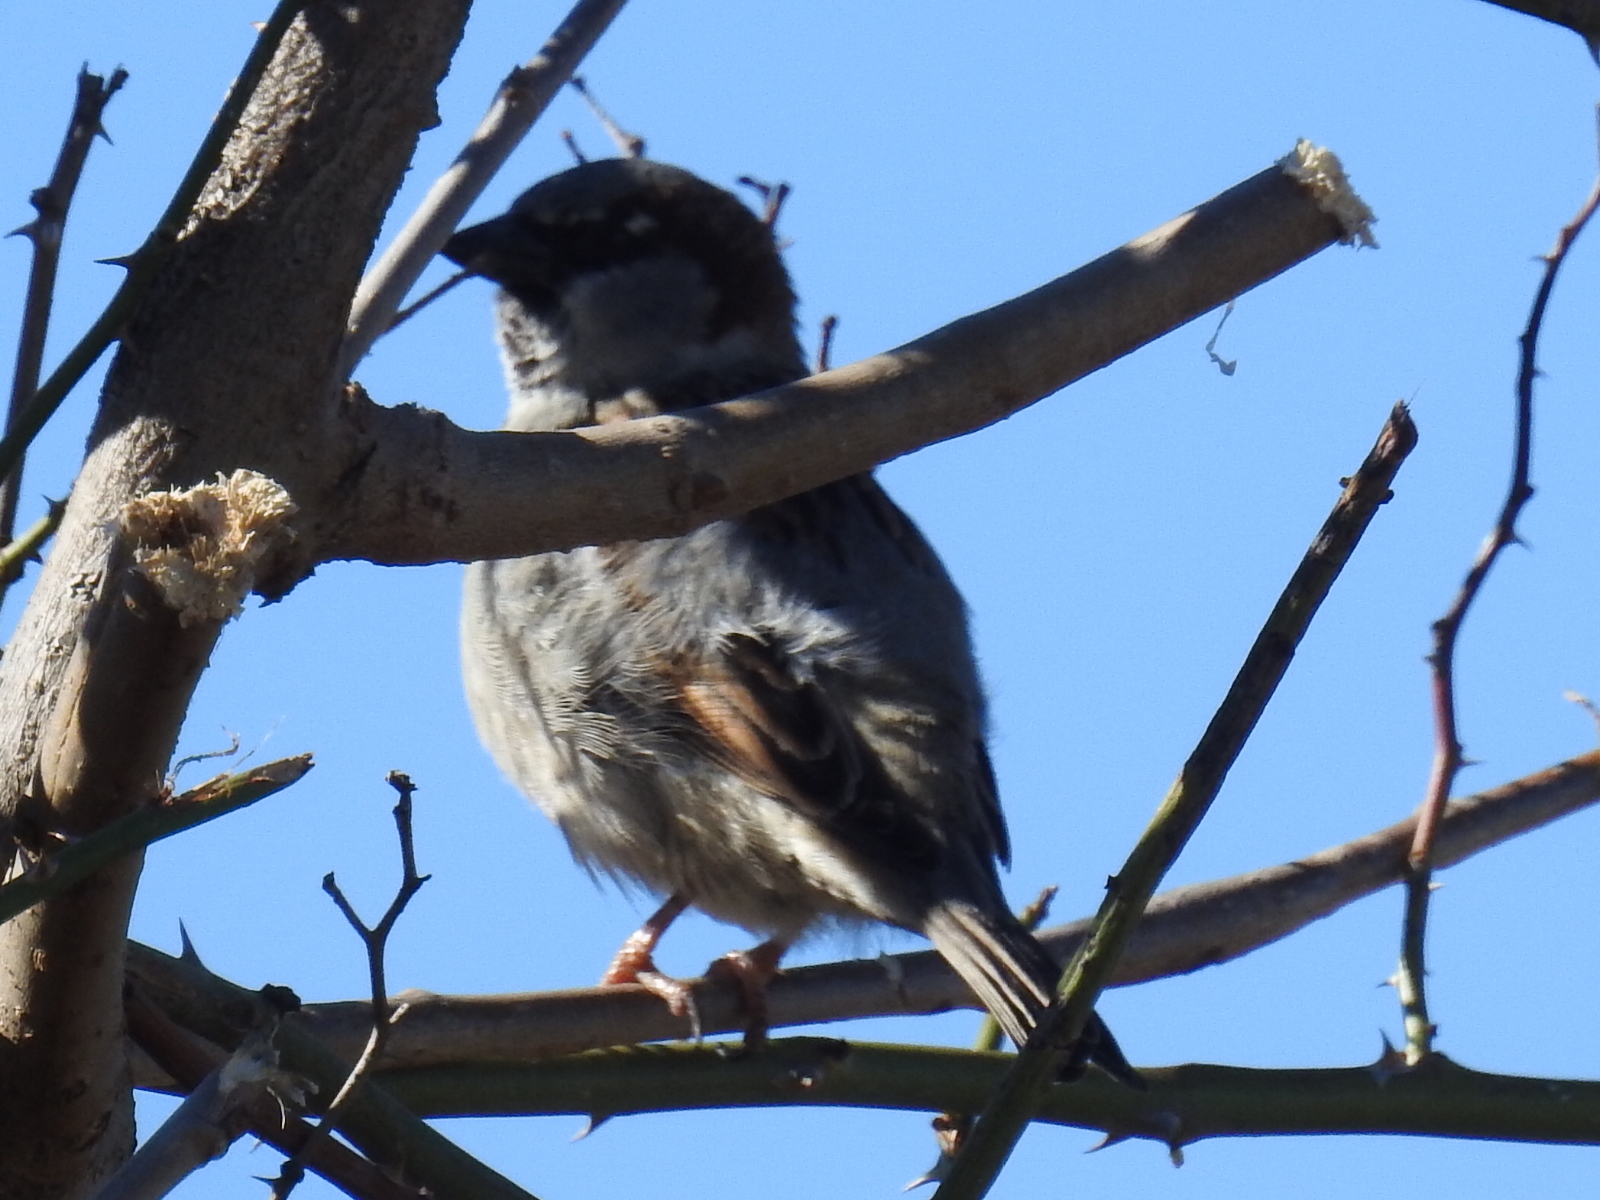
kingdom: Animalia
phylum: Chordata
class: Aves
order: Passeriformes
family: Passeridae
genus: Passer
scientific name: Passer domesticus
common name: House sparrow
